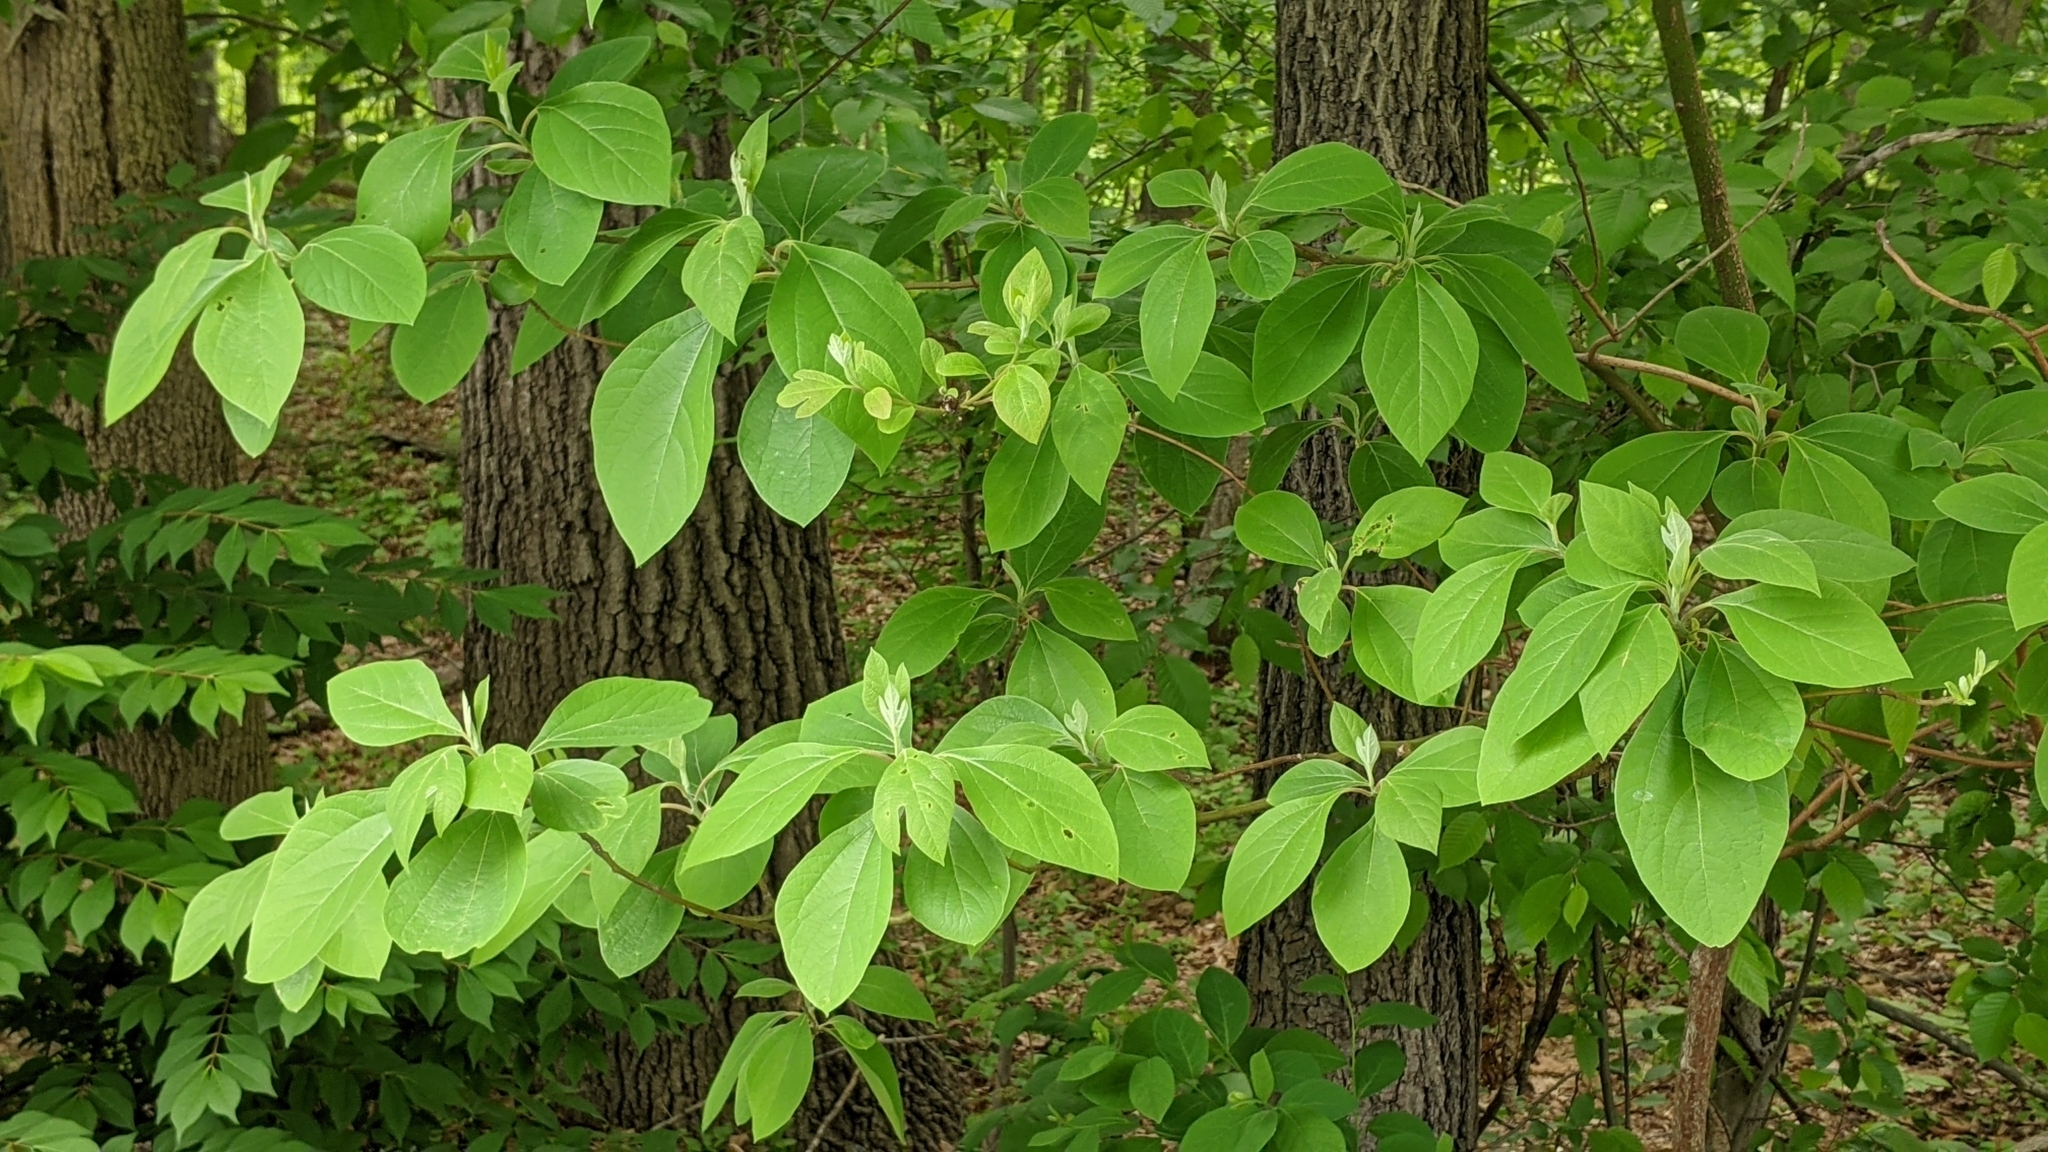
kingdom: Plantae
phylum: Tracheophyta
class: Magnoliopsida
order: Laurales
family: Lauraceae
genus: Sassafras
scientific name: Sassafras albidum
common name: Sassafras
